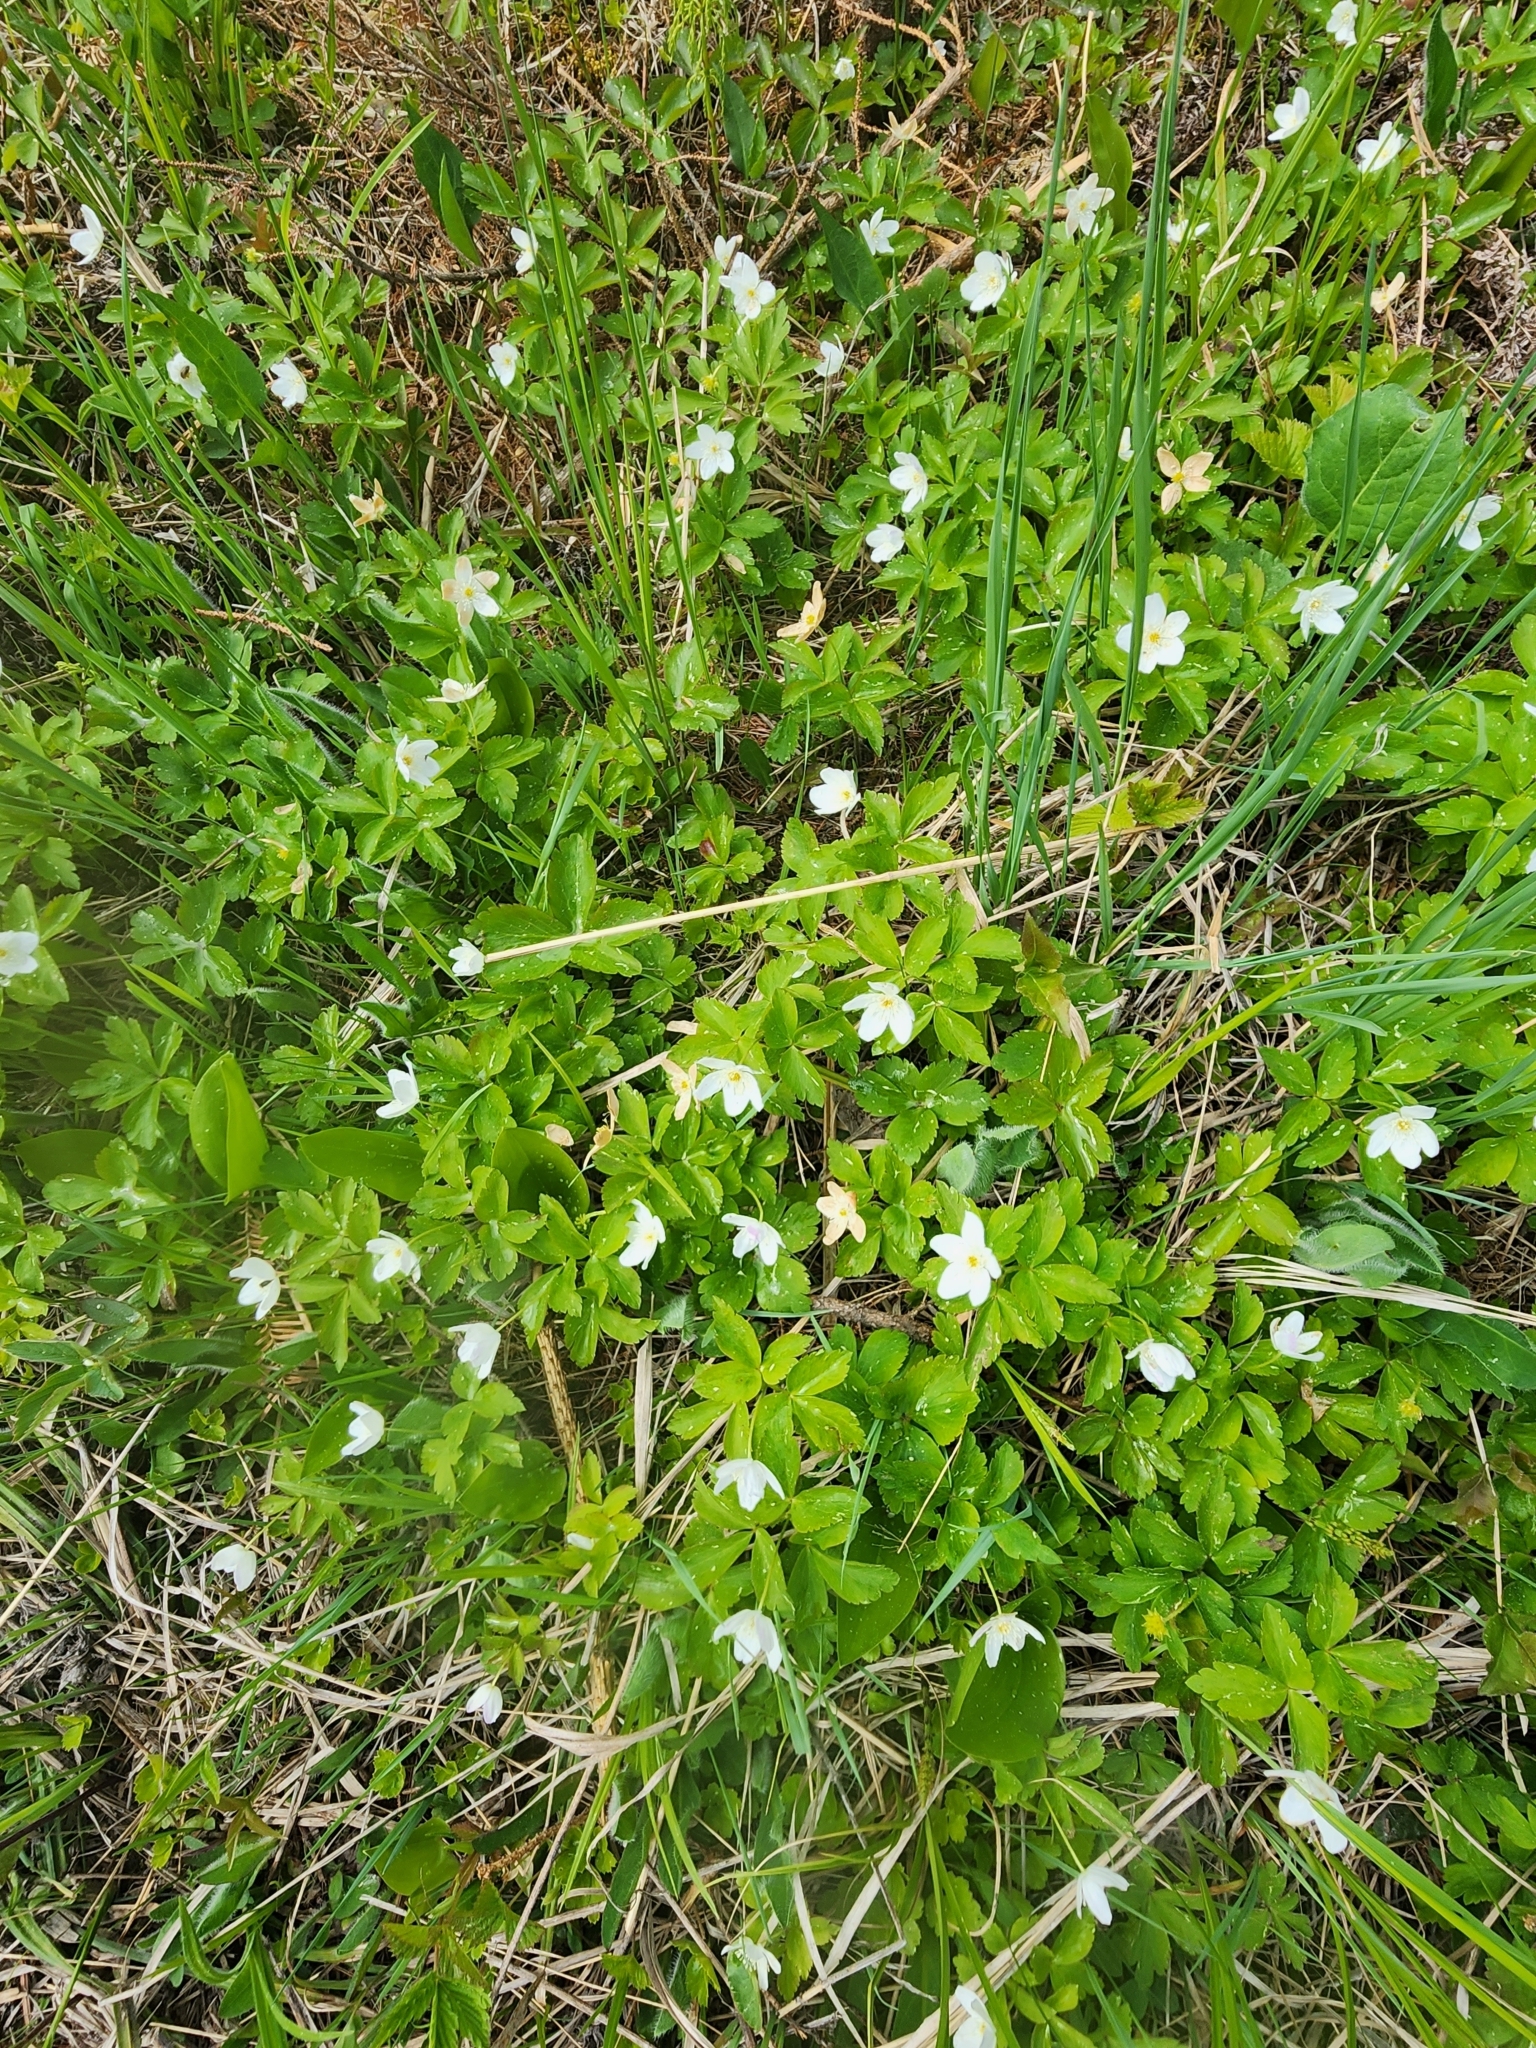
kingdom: Plantae
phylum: Tracheophyta
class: Magnoliopsida
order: Ranunculales
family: Ranunculaceae
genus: Anemone
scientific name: Anemone quinquefolia
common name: Wood anemone
